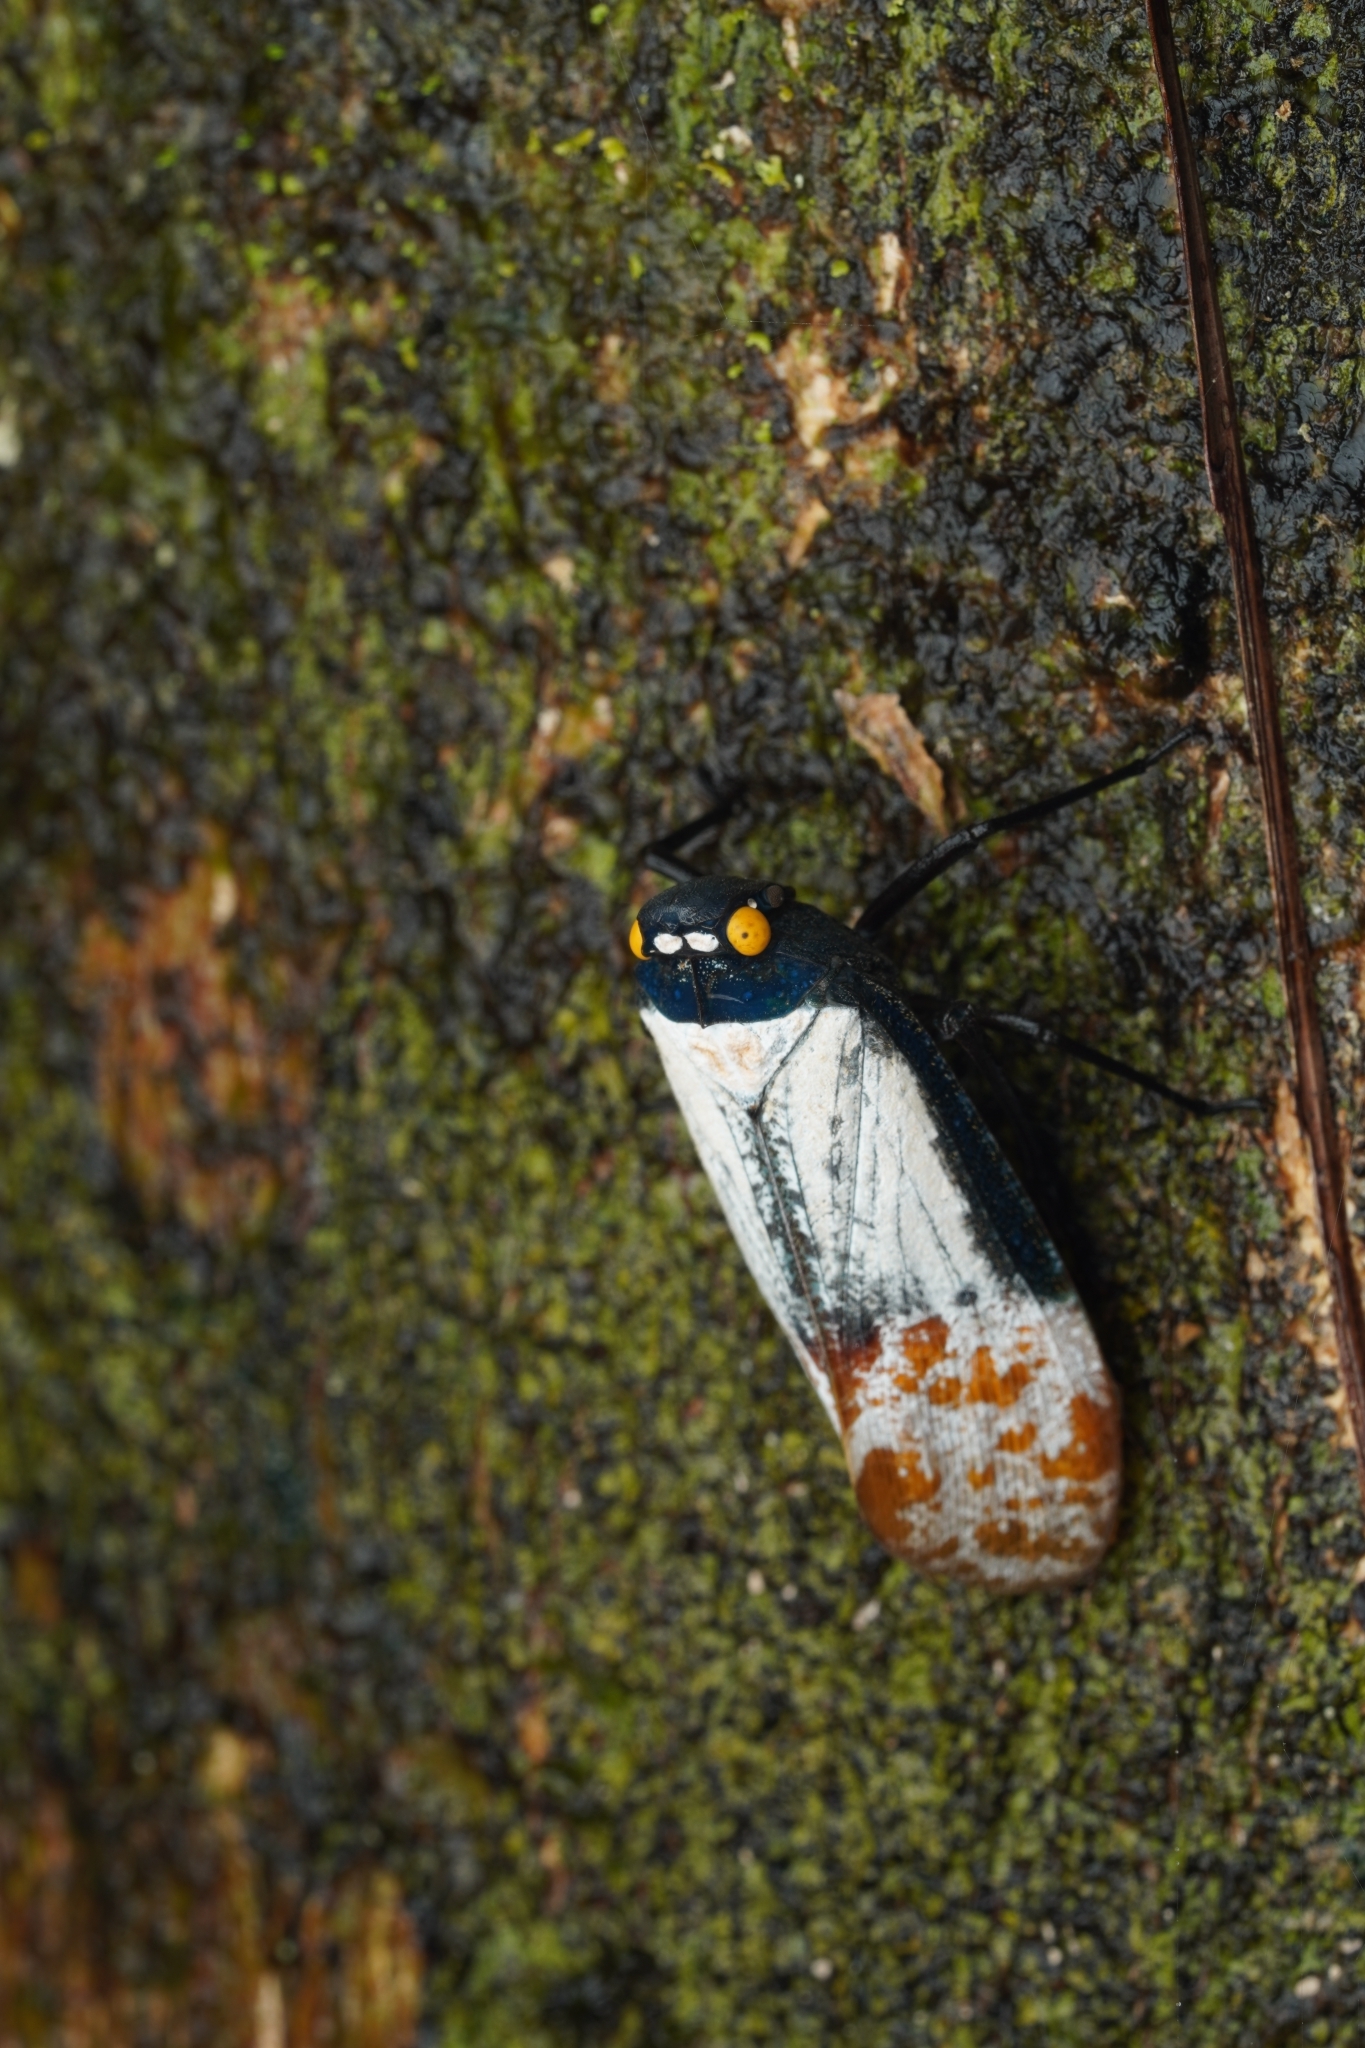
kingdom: Animalia
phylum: Arthropoda
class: Insecta
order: Hemiptera
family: Fulgoridae
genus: Penthicodes
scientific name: Penthicodes farinosa
